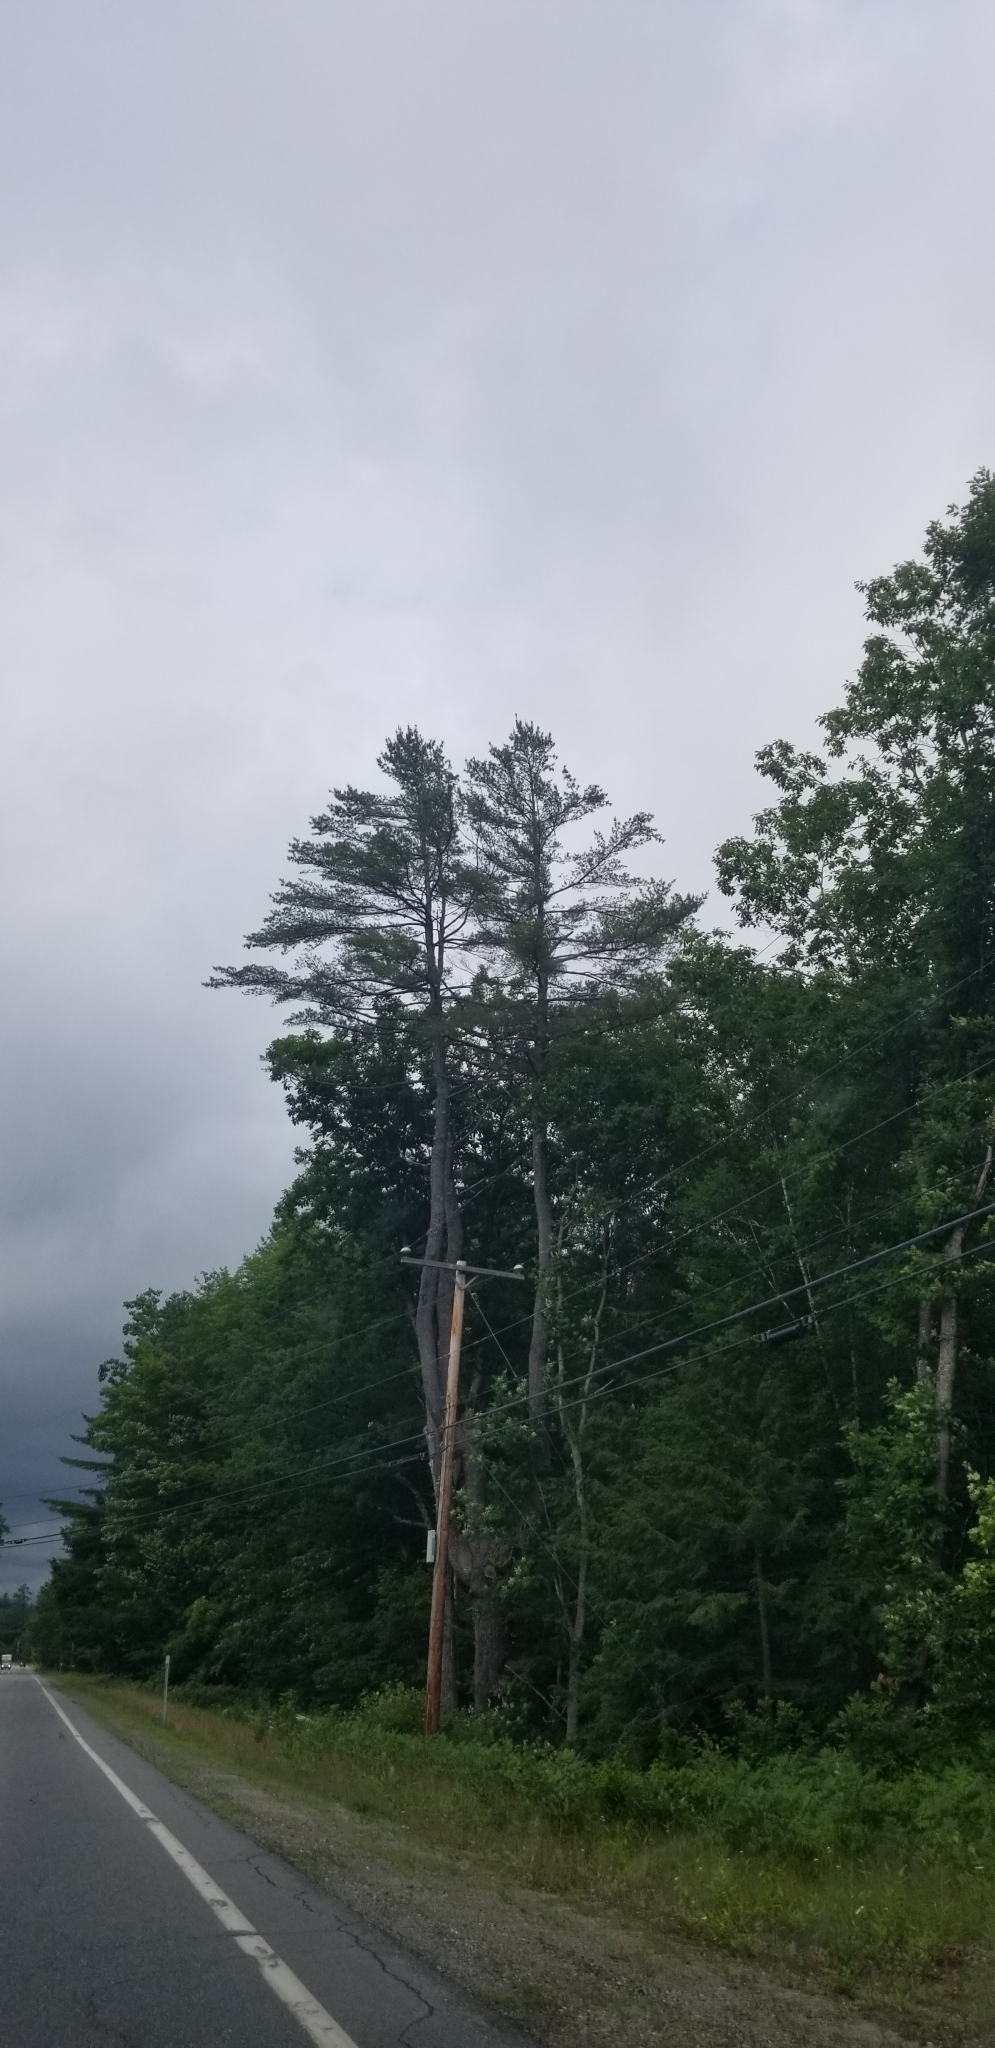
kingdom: Plantae
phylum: Tracheophyta
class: Pinopsida
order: Pinales
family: Pinaceae
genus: Pinus
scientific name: Pinus strobus
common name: Weymouth pine
